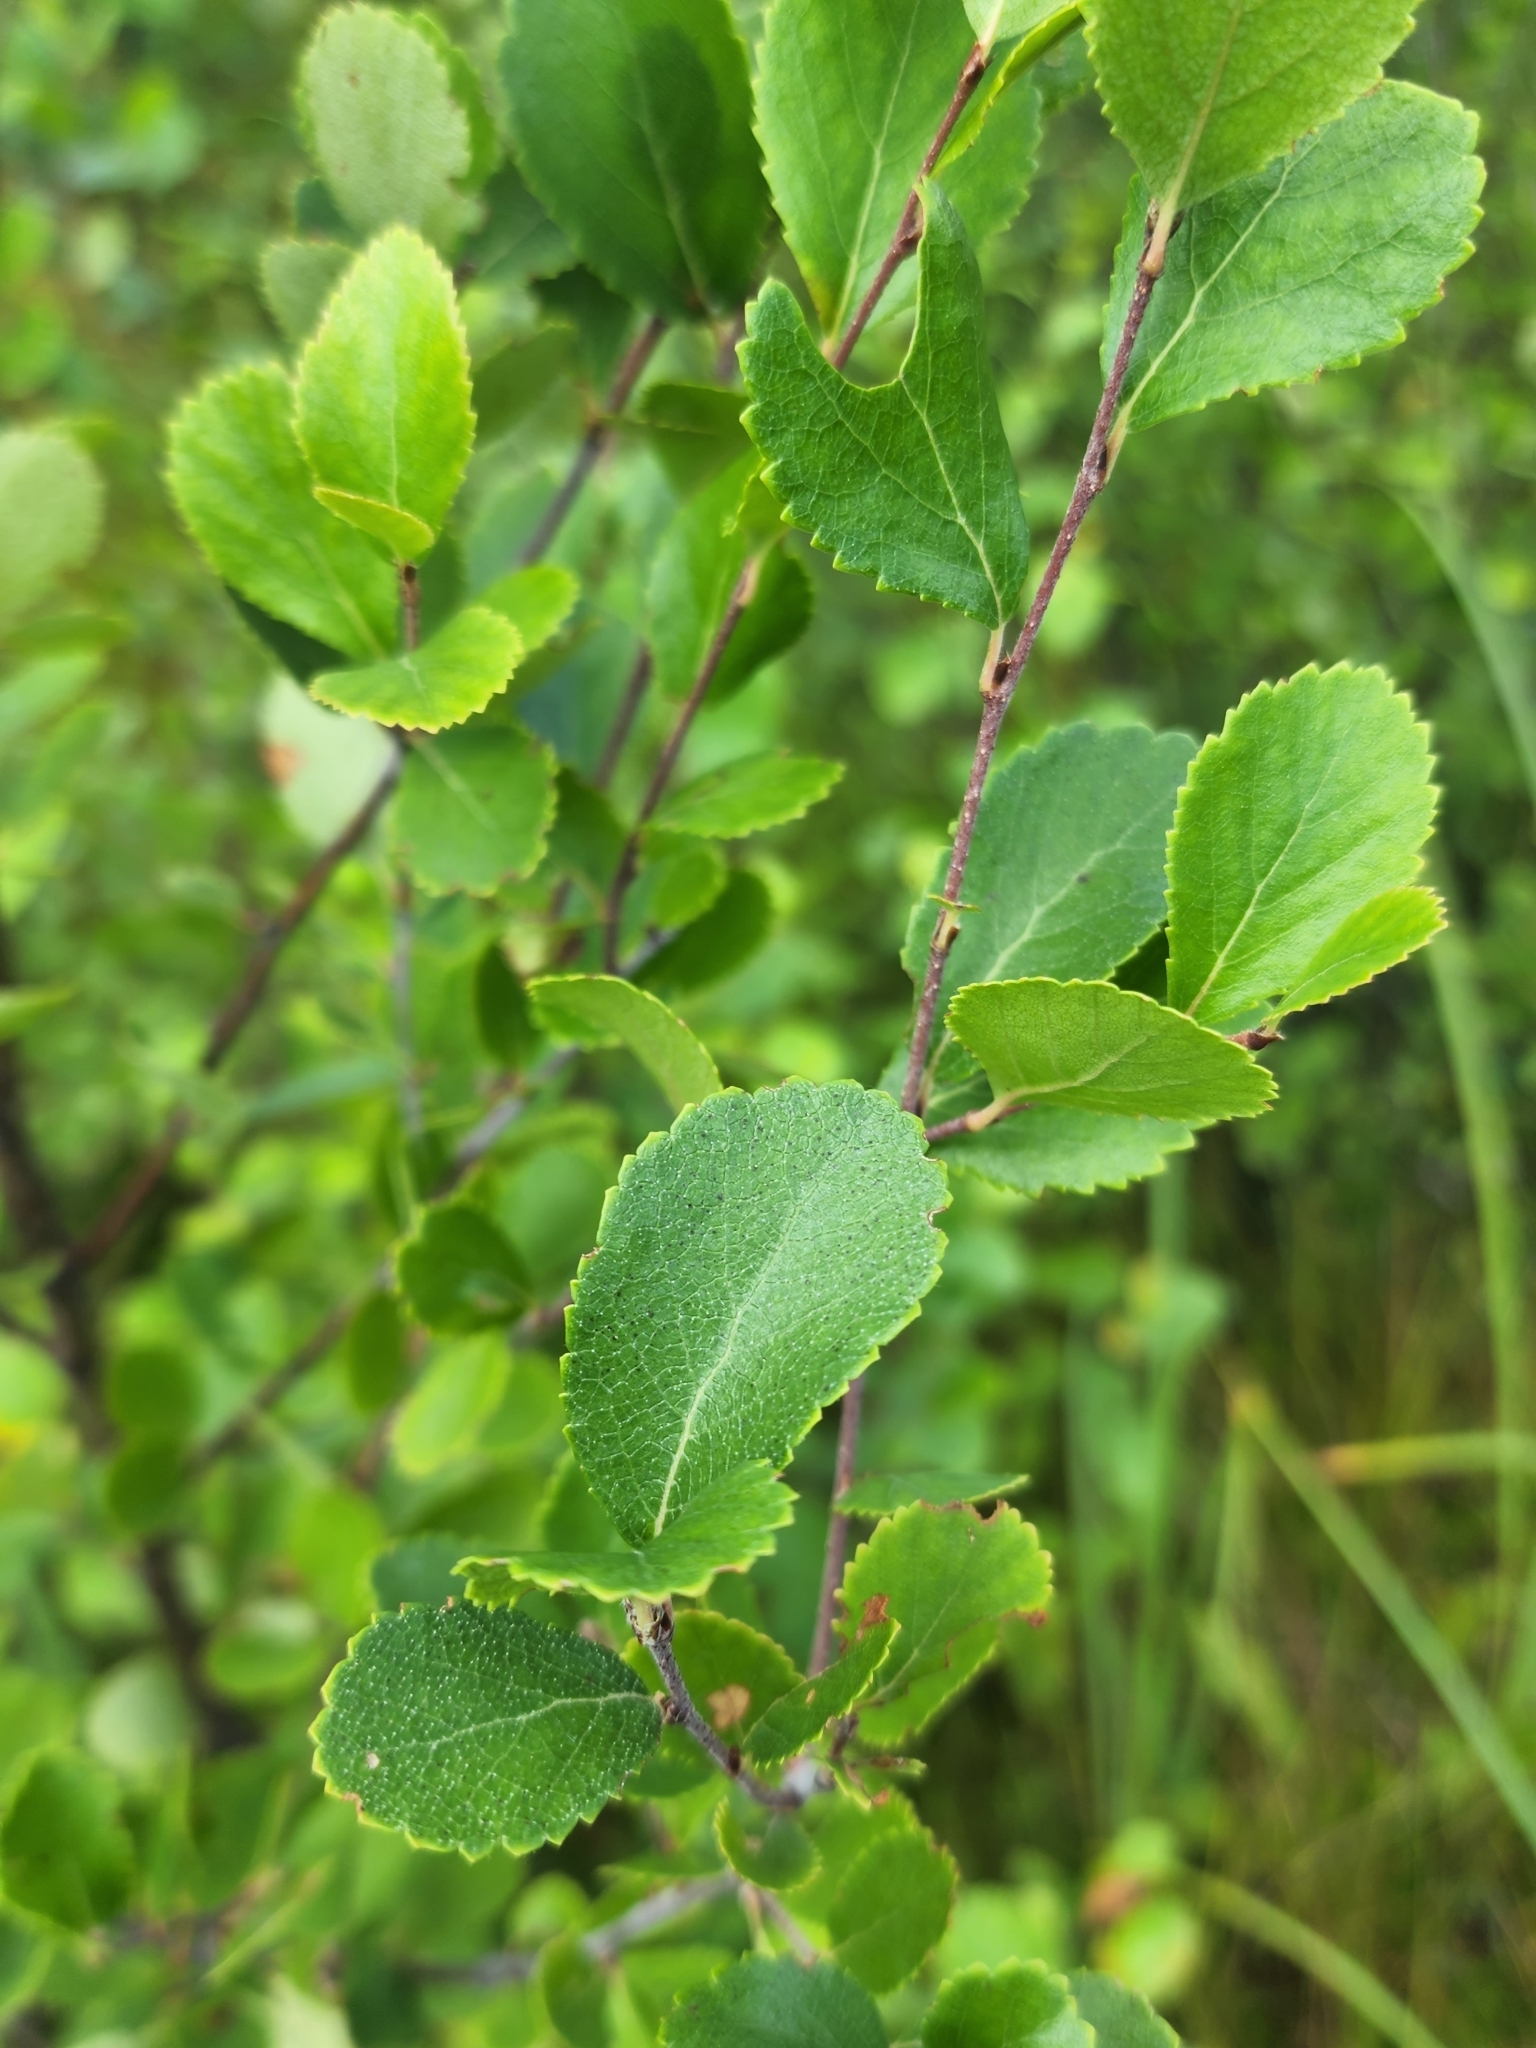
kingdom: Plantae
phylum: Tracheophyta
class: Magnoliopsida
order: Fagales
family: Betulaceae
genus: Betula
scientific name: Betula pumila
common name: Bog birch
